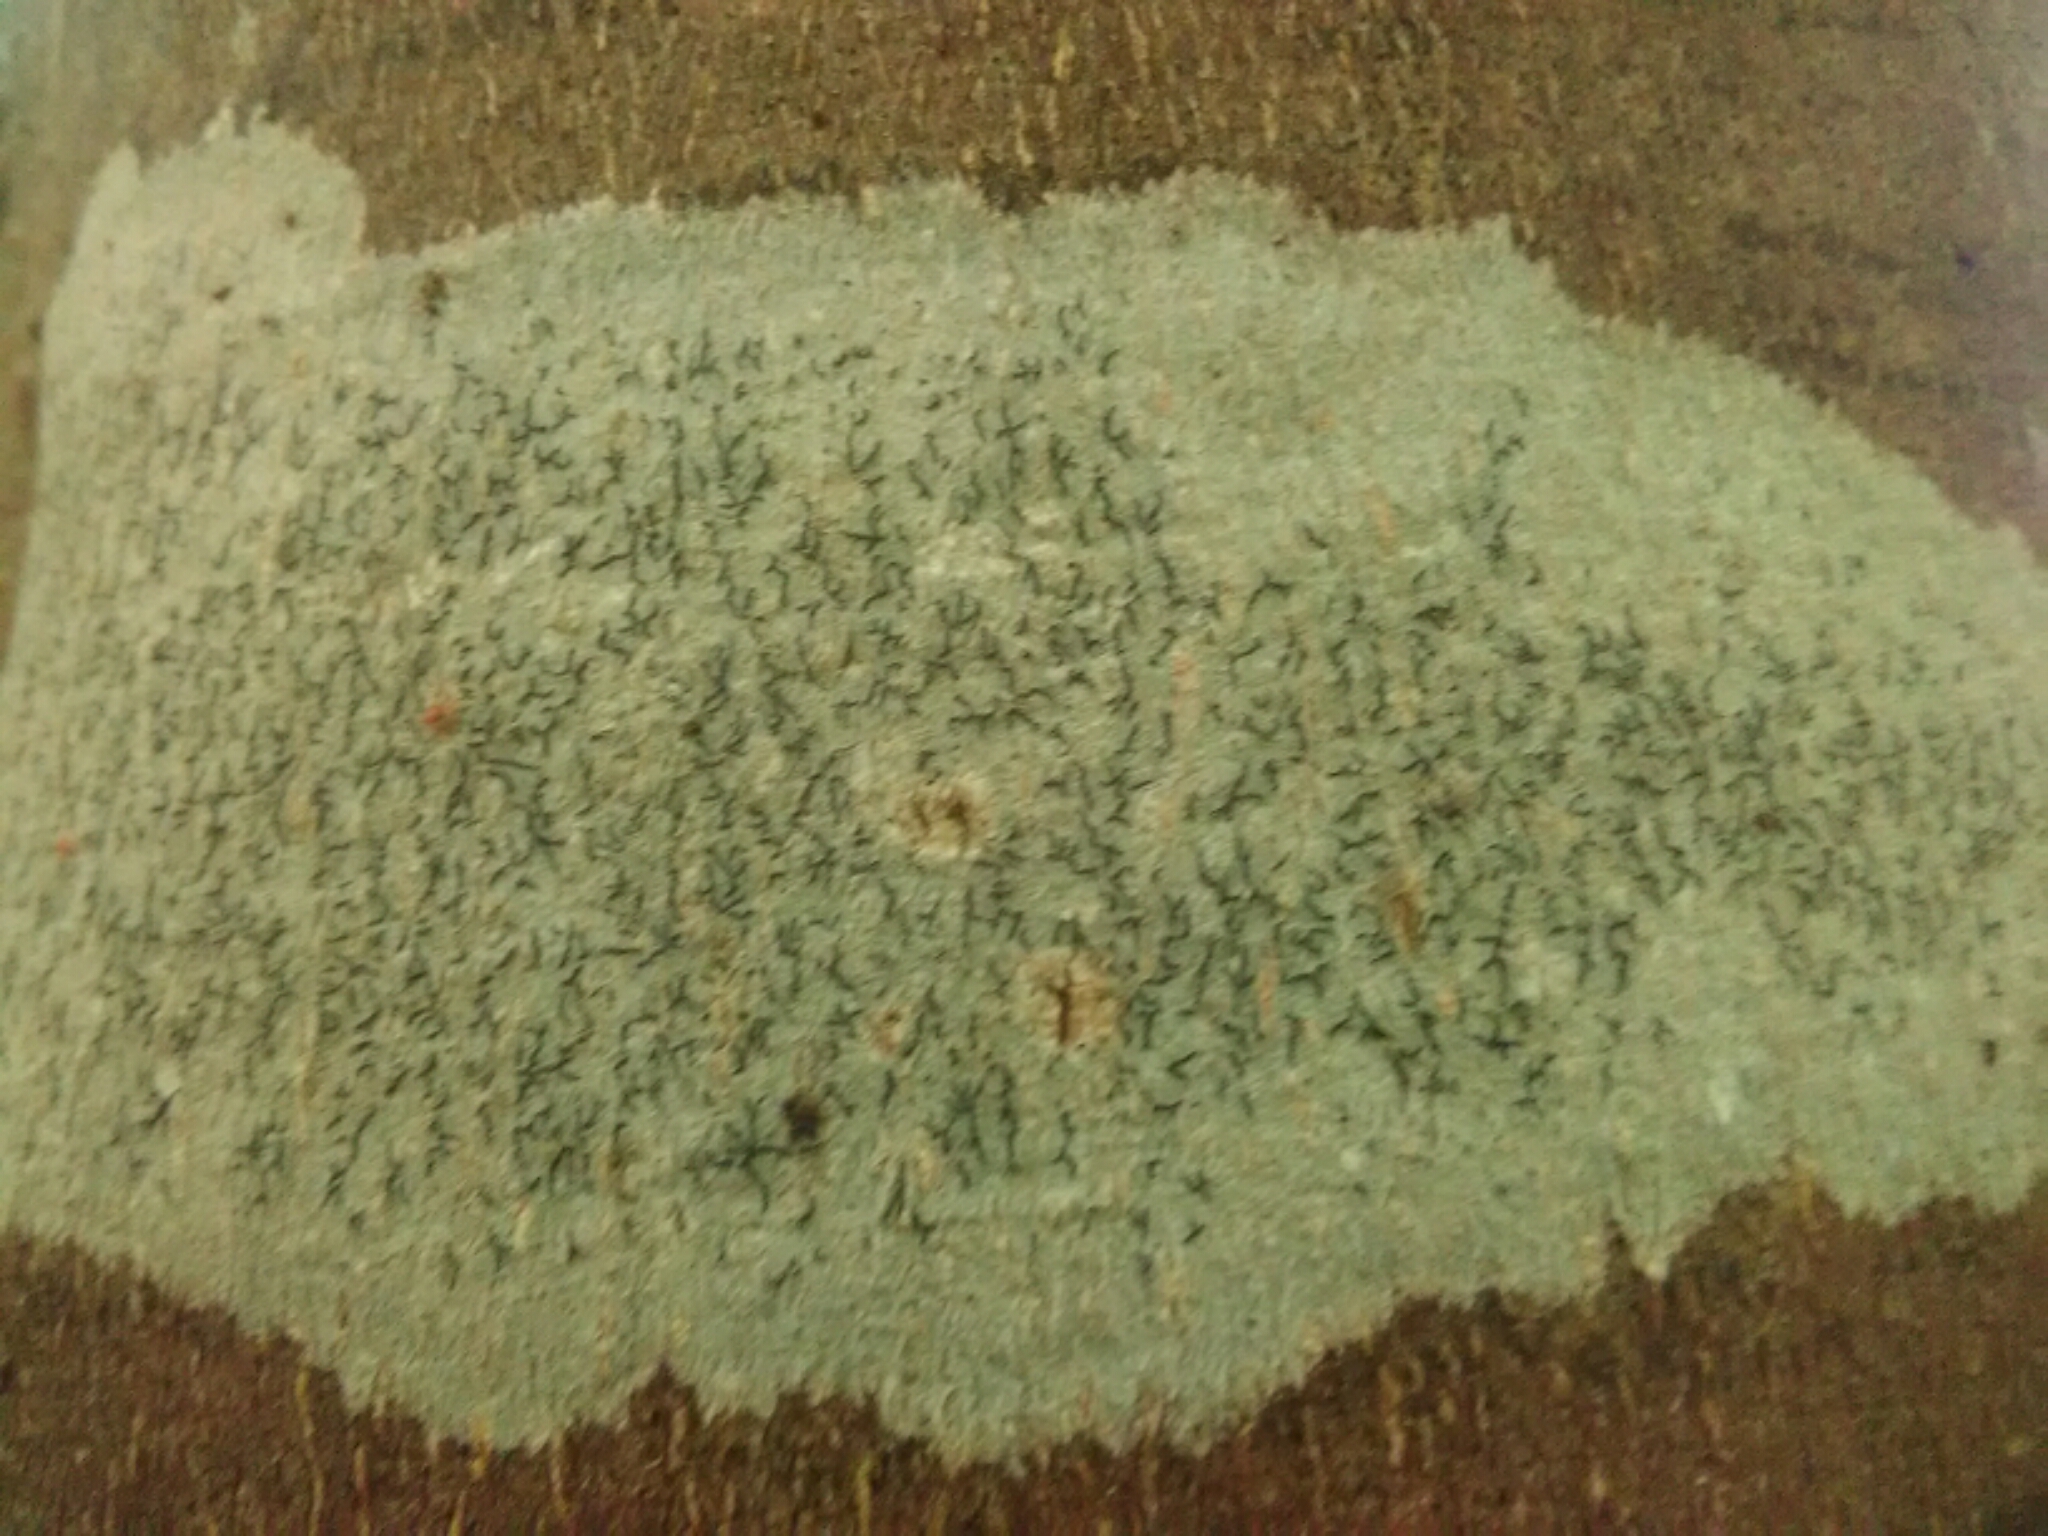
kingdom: Fungi
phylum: Ascomycota
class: Lecanoromycetes
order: Ostropales
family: Graphidaceae
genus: Graphis
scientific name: Graphis scripta
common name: Script lichen
